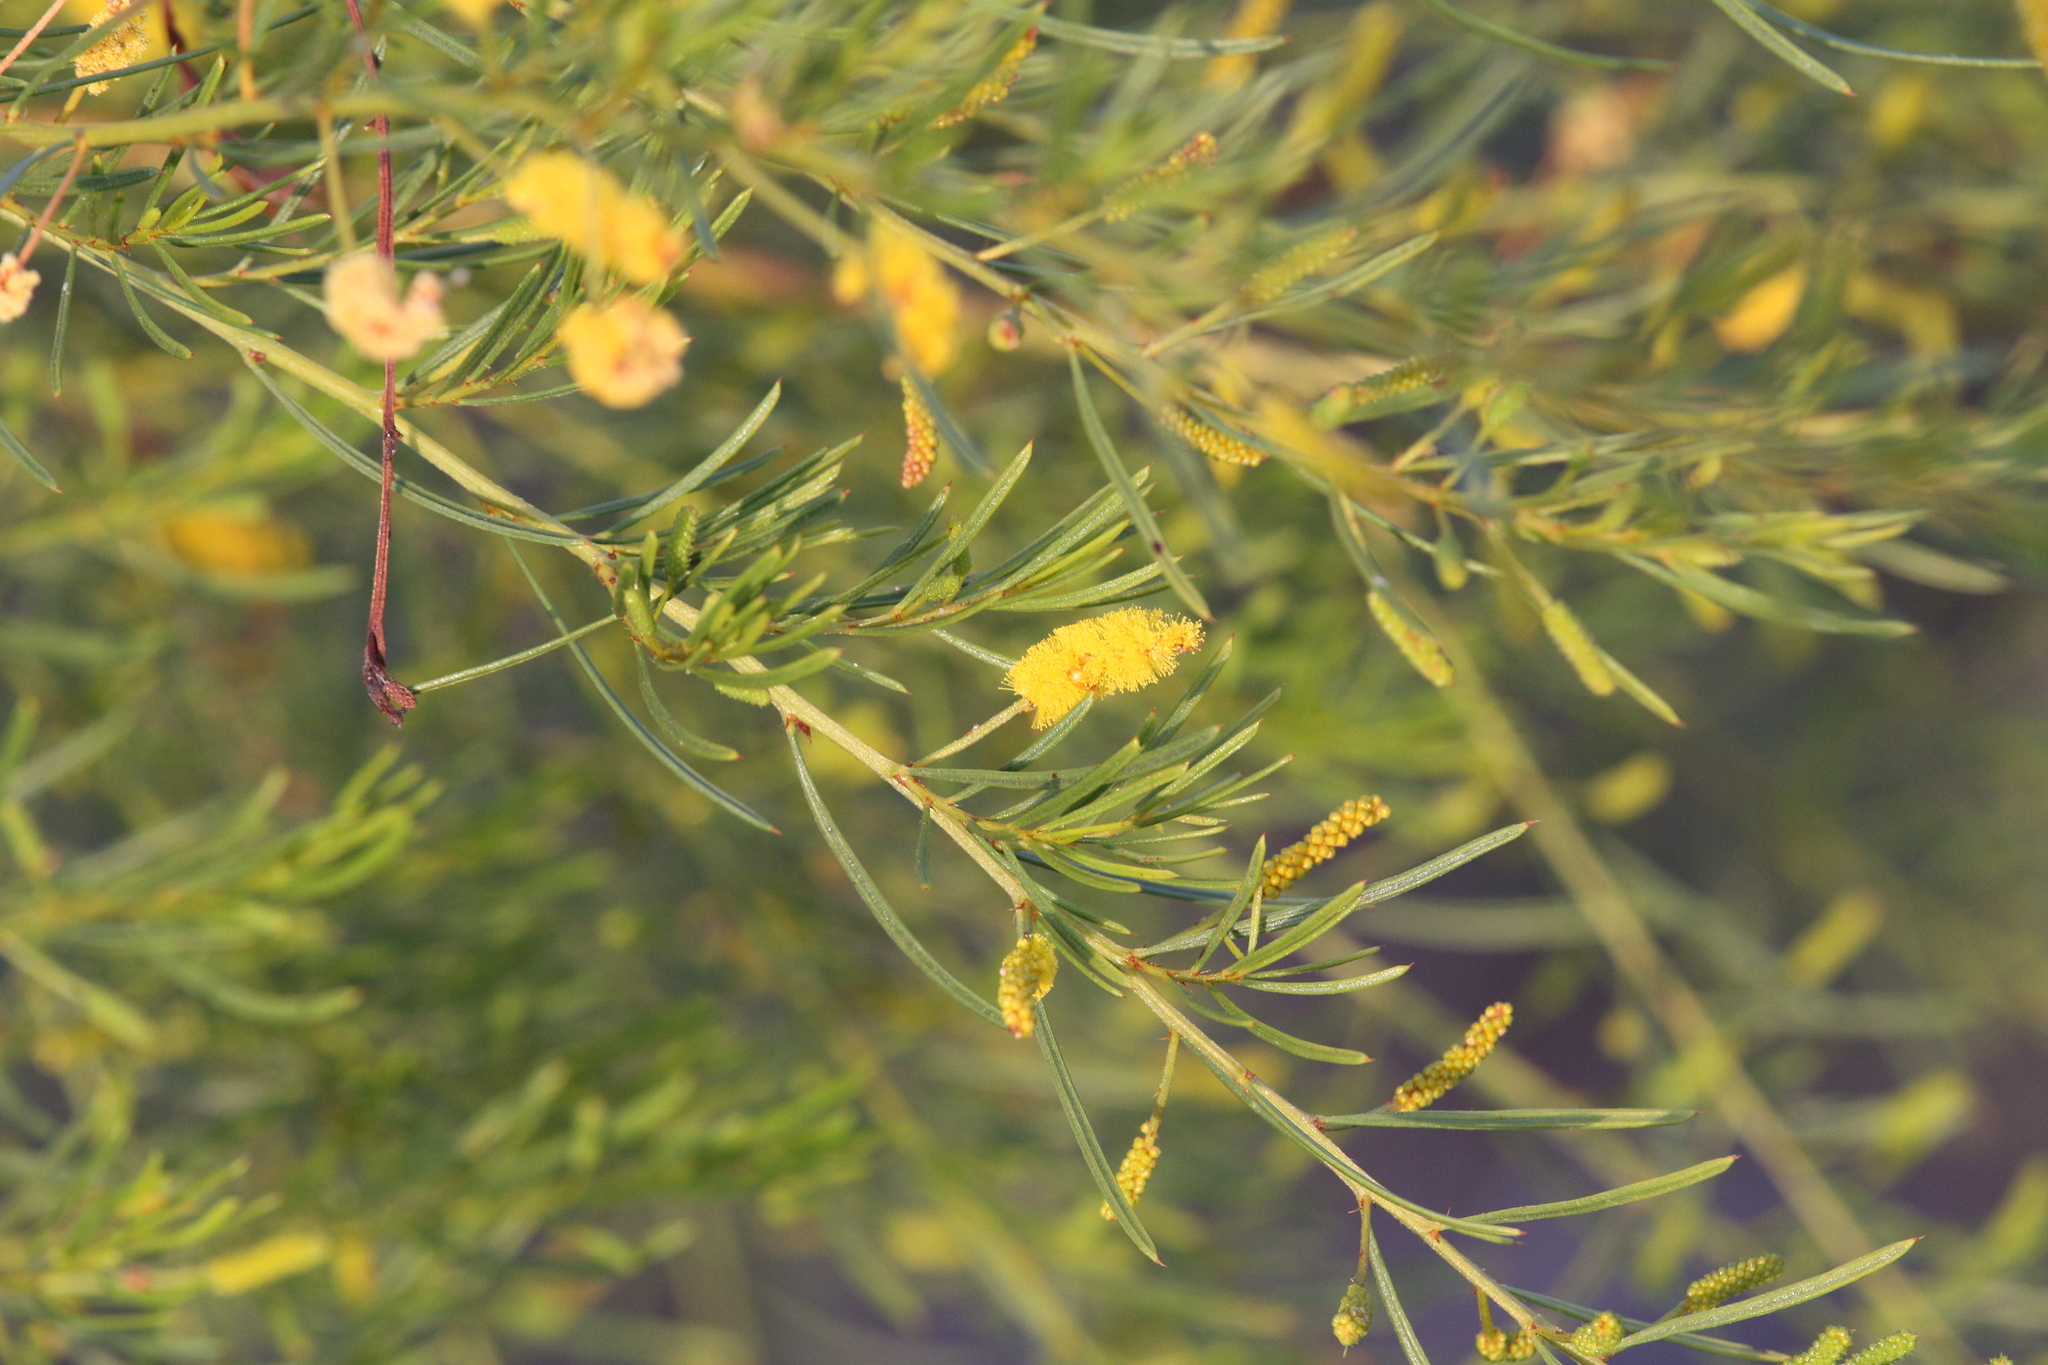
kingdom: Plantae
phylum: Tracheophyta
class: Magnoliopsida
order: Fabales
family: Fabaceae
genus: Acacia
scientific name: Acacia chisholmii
